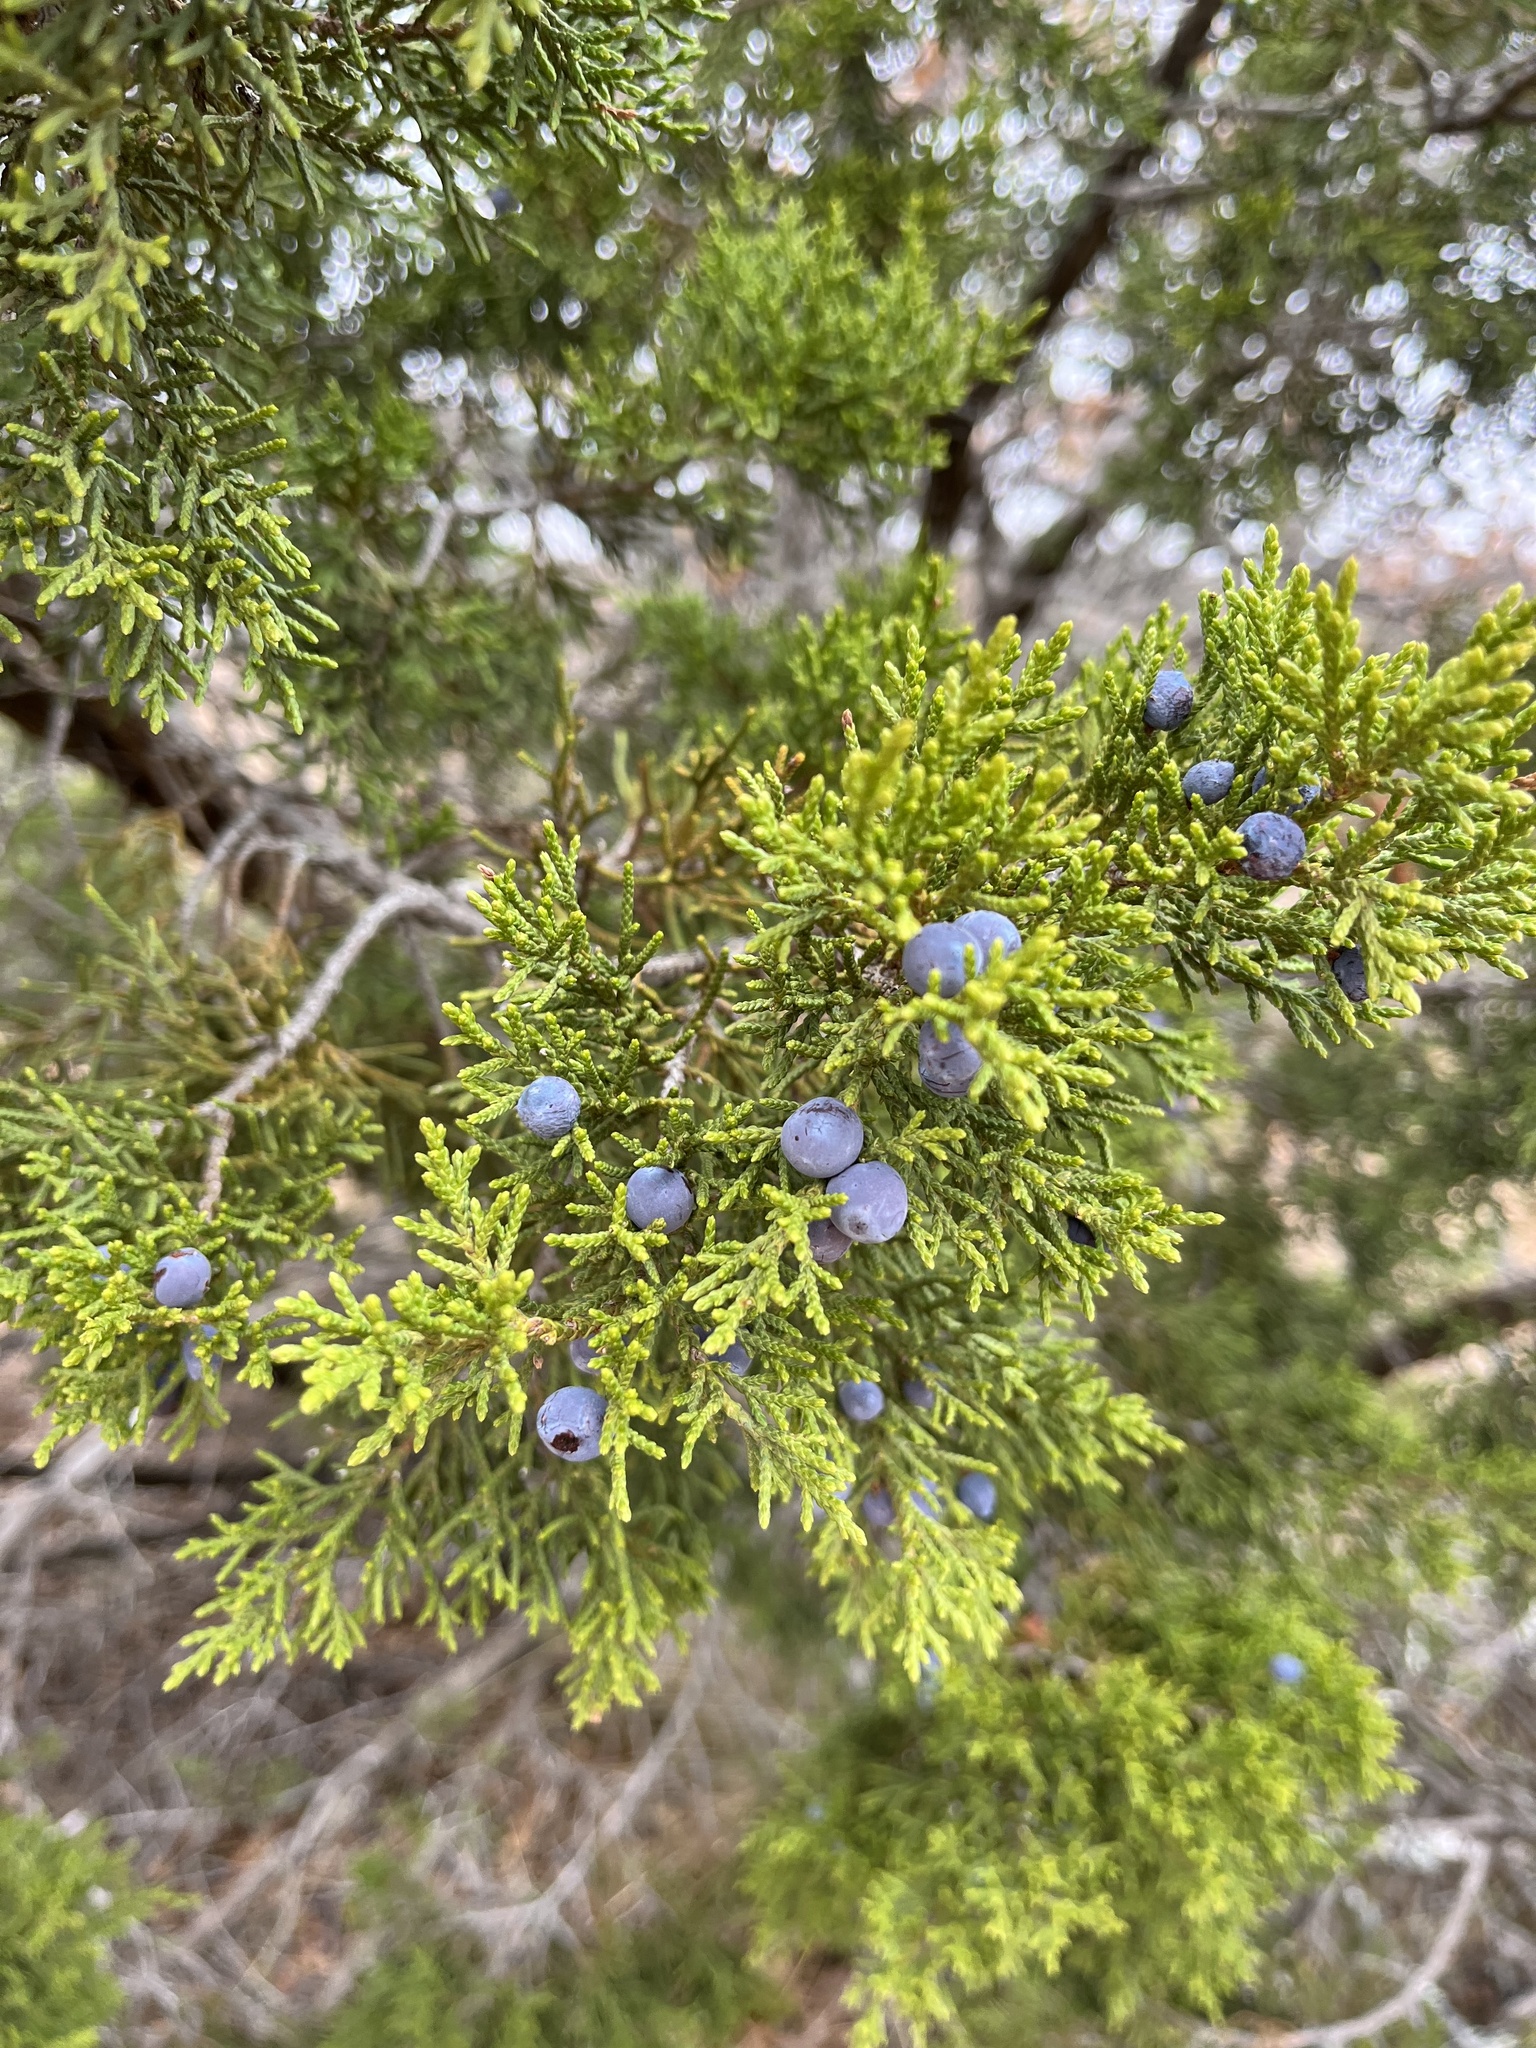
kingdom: Plantae
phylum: Tracheophyta
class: Pinopsida
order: Pinales
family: Cupressaceae
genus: Juniperus
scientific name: Juniperus ashei
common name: Mexican juniper
